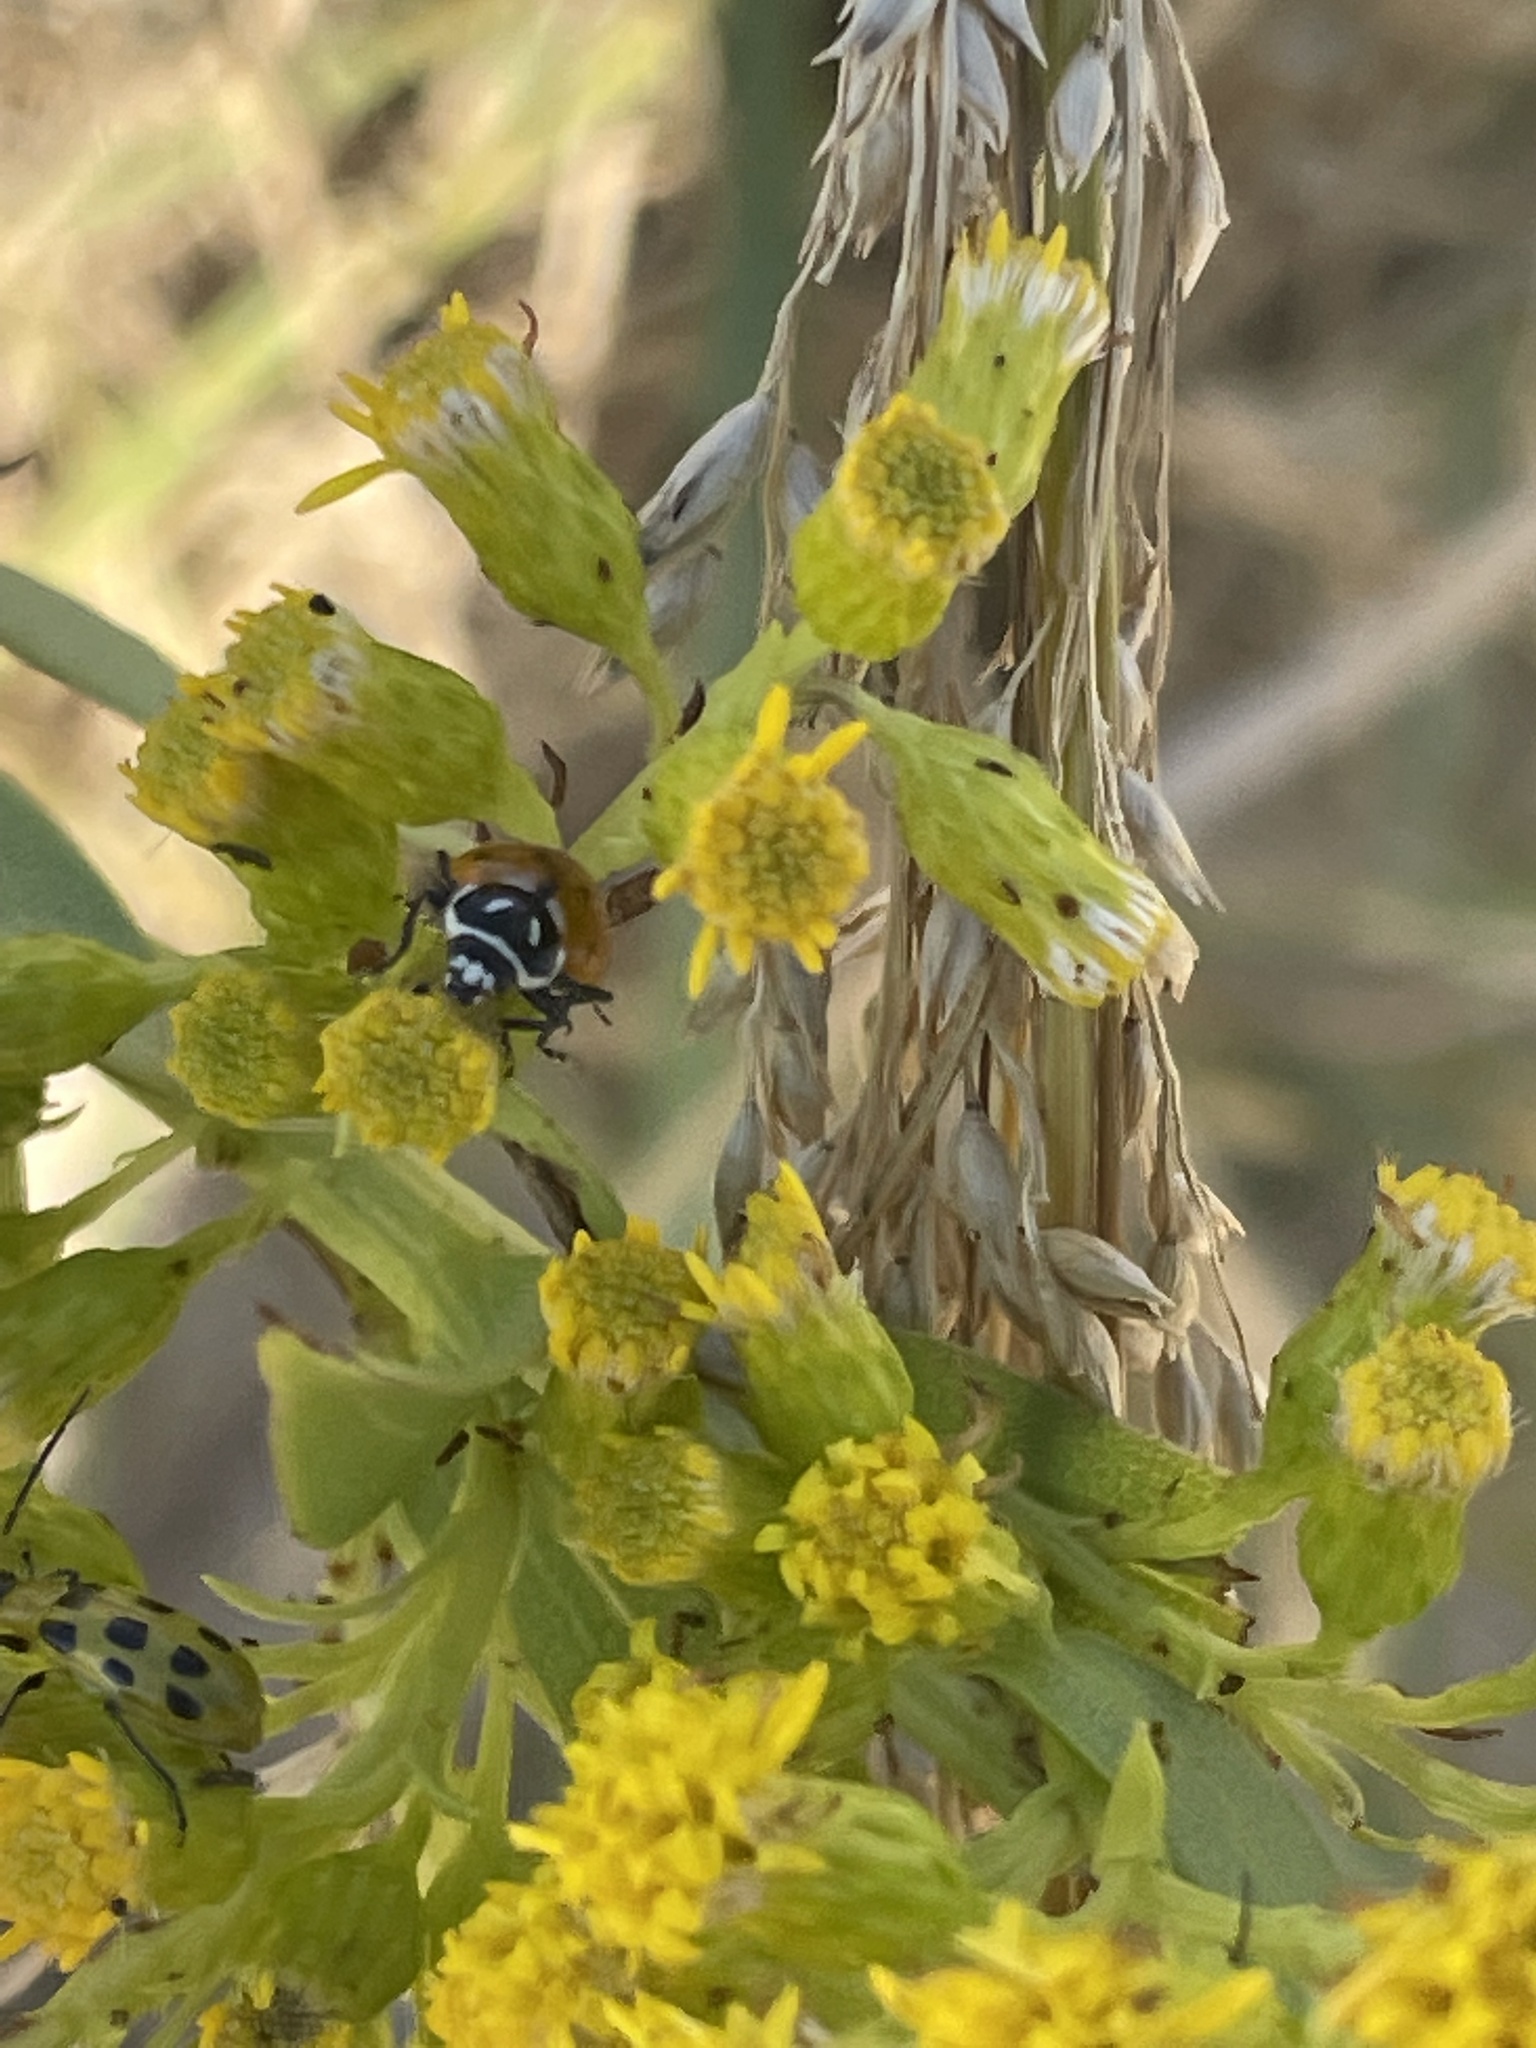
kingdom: Animalia
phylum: Arthropoda
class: Insecta
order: Coleoptera
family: Coccinellidae
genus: Hippodamia
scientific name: Hippodamia convergens
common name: Convergent lady beetle
